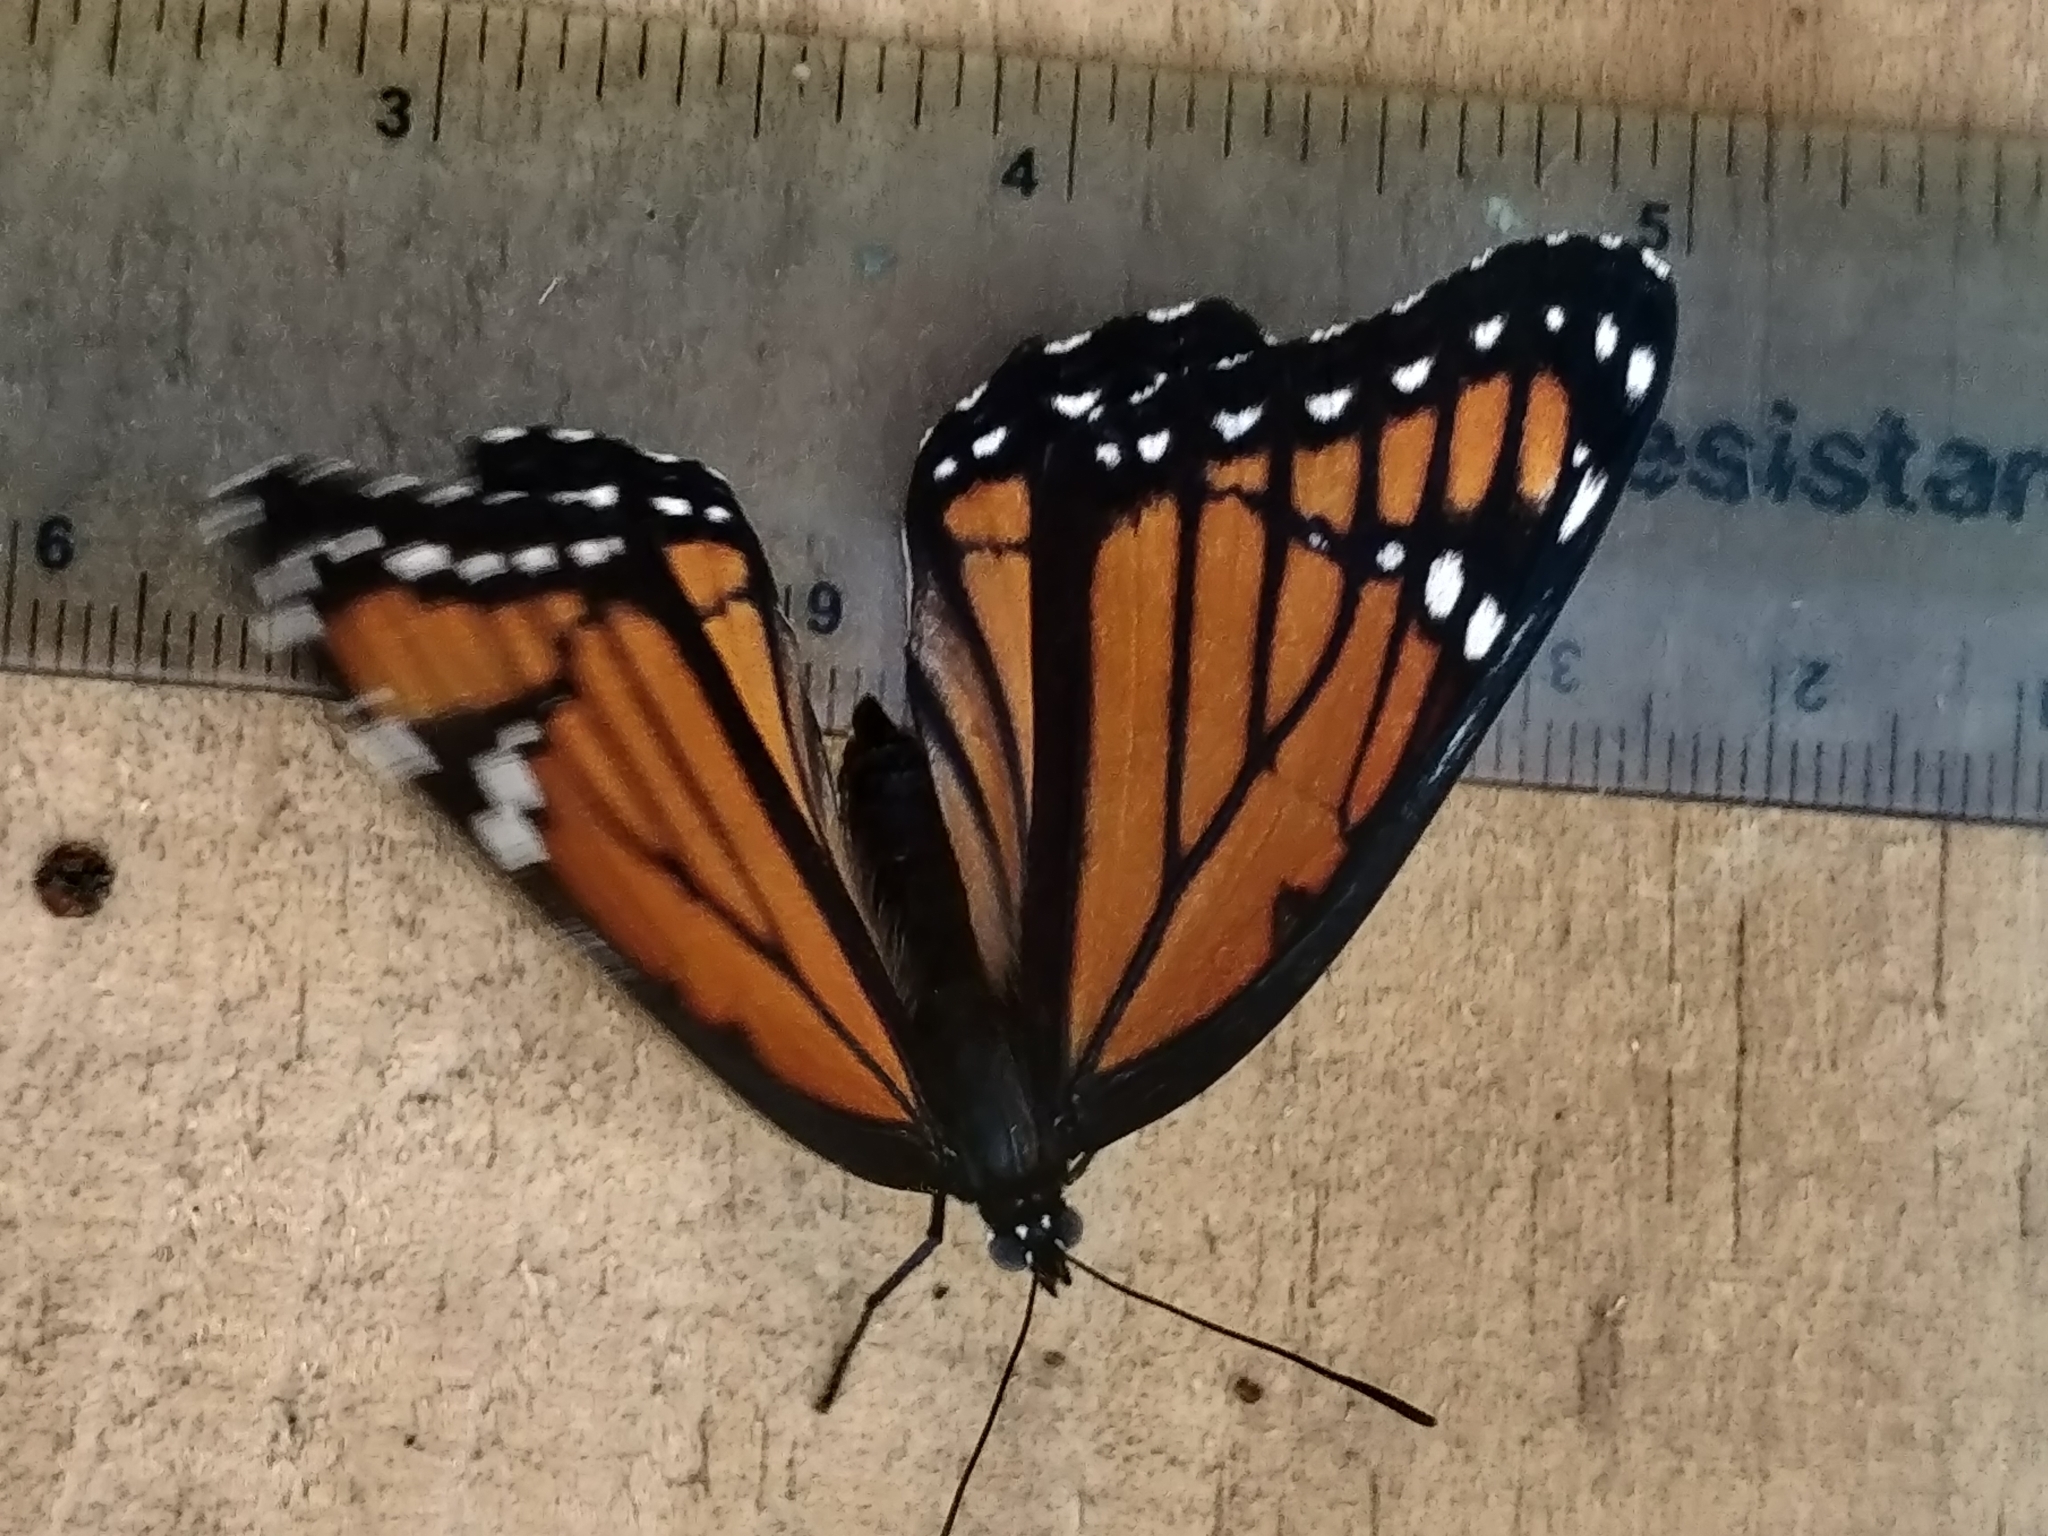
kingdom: Animalia
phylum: Arthropoda
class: Insecta
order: Lepidoptera
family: Nymphalidae
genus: Limenitis
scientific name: Limenitis archippus
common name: Viceroy
